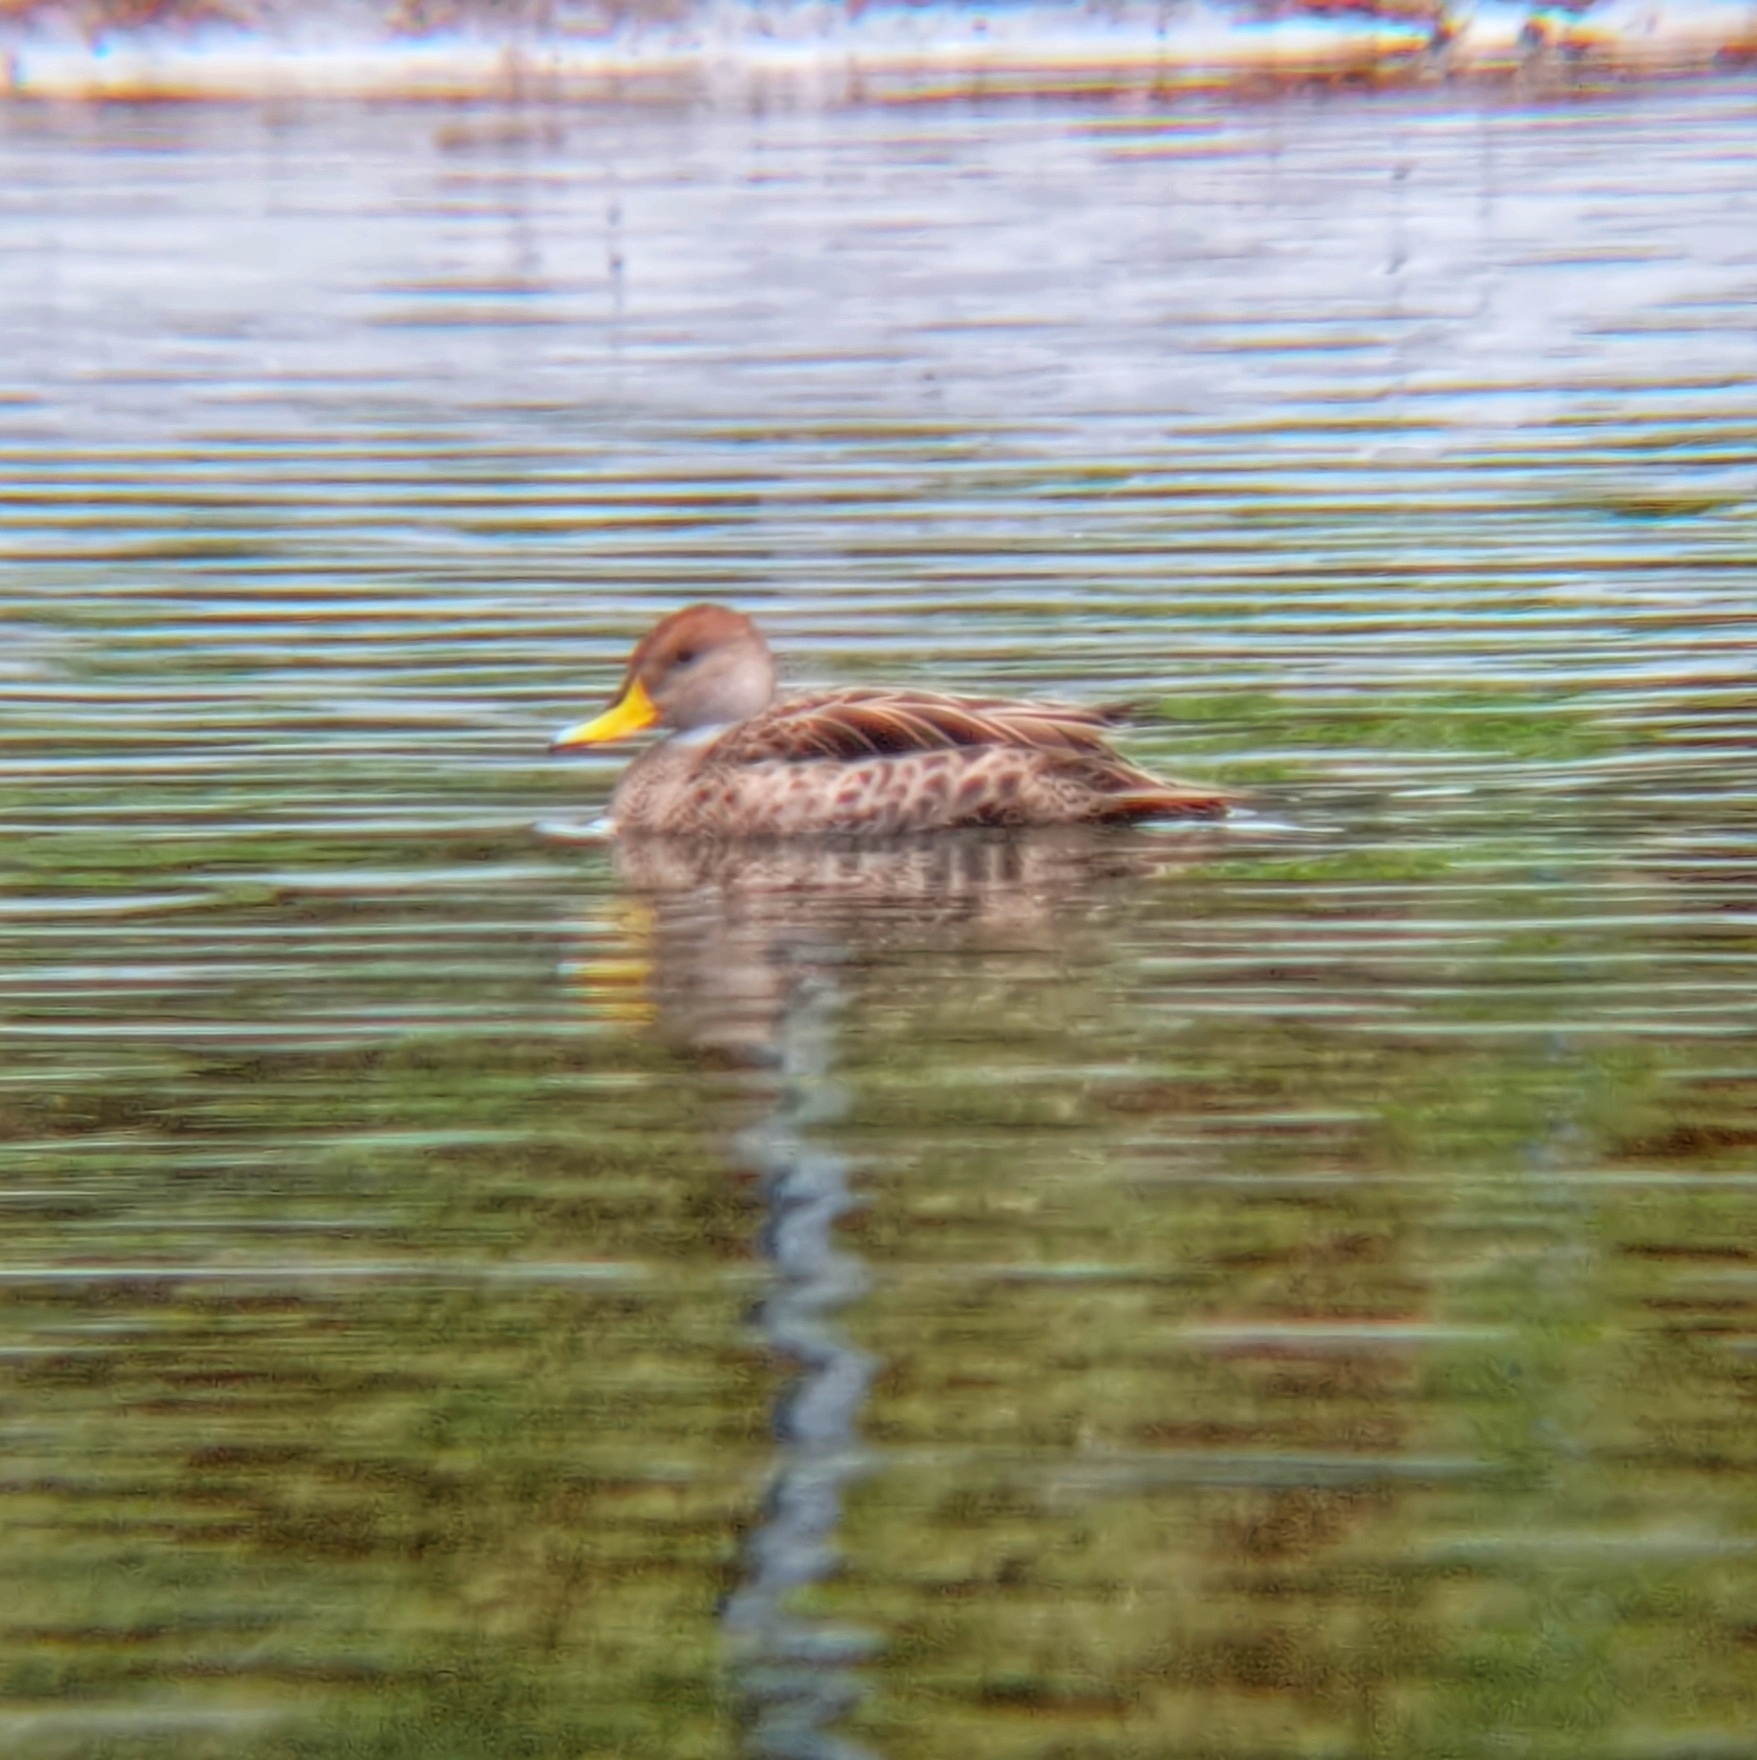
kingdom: Animalia
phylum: Chordata
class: Aves
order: Anseriformes
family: Anatidae
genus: Anas
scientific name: Anas georgica
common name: Yellow-billed pintail
